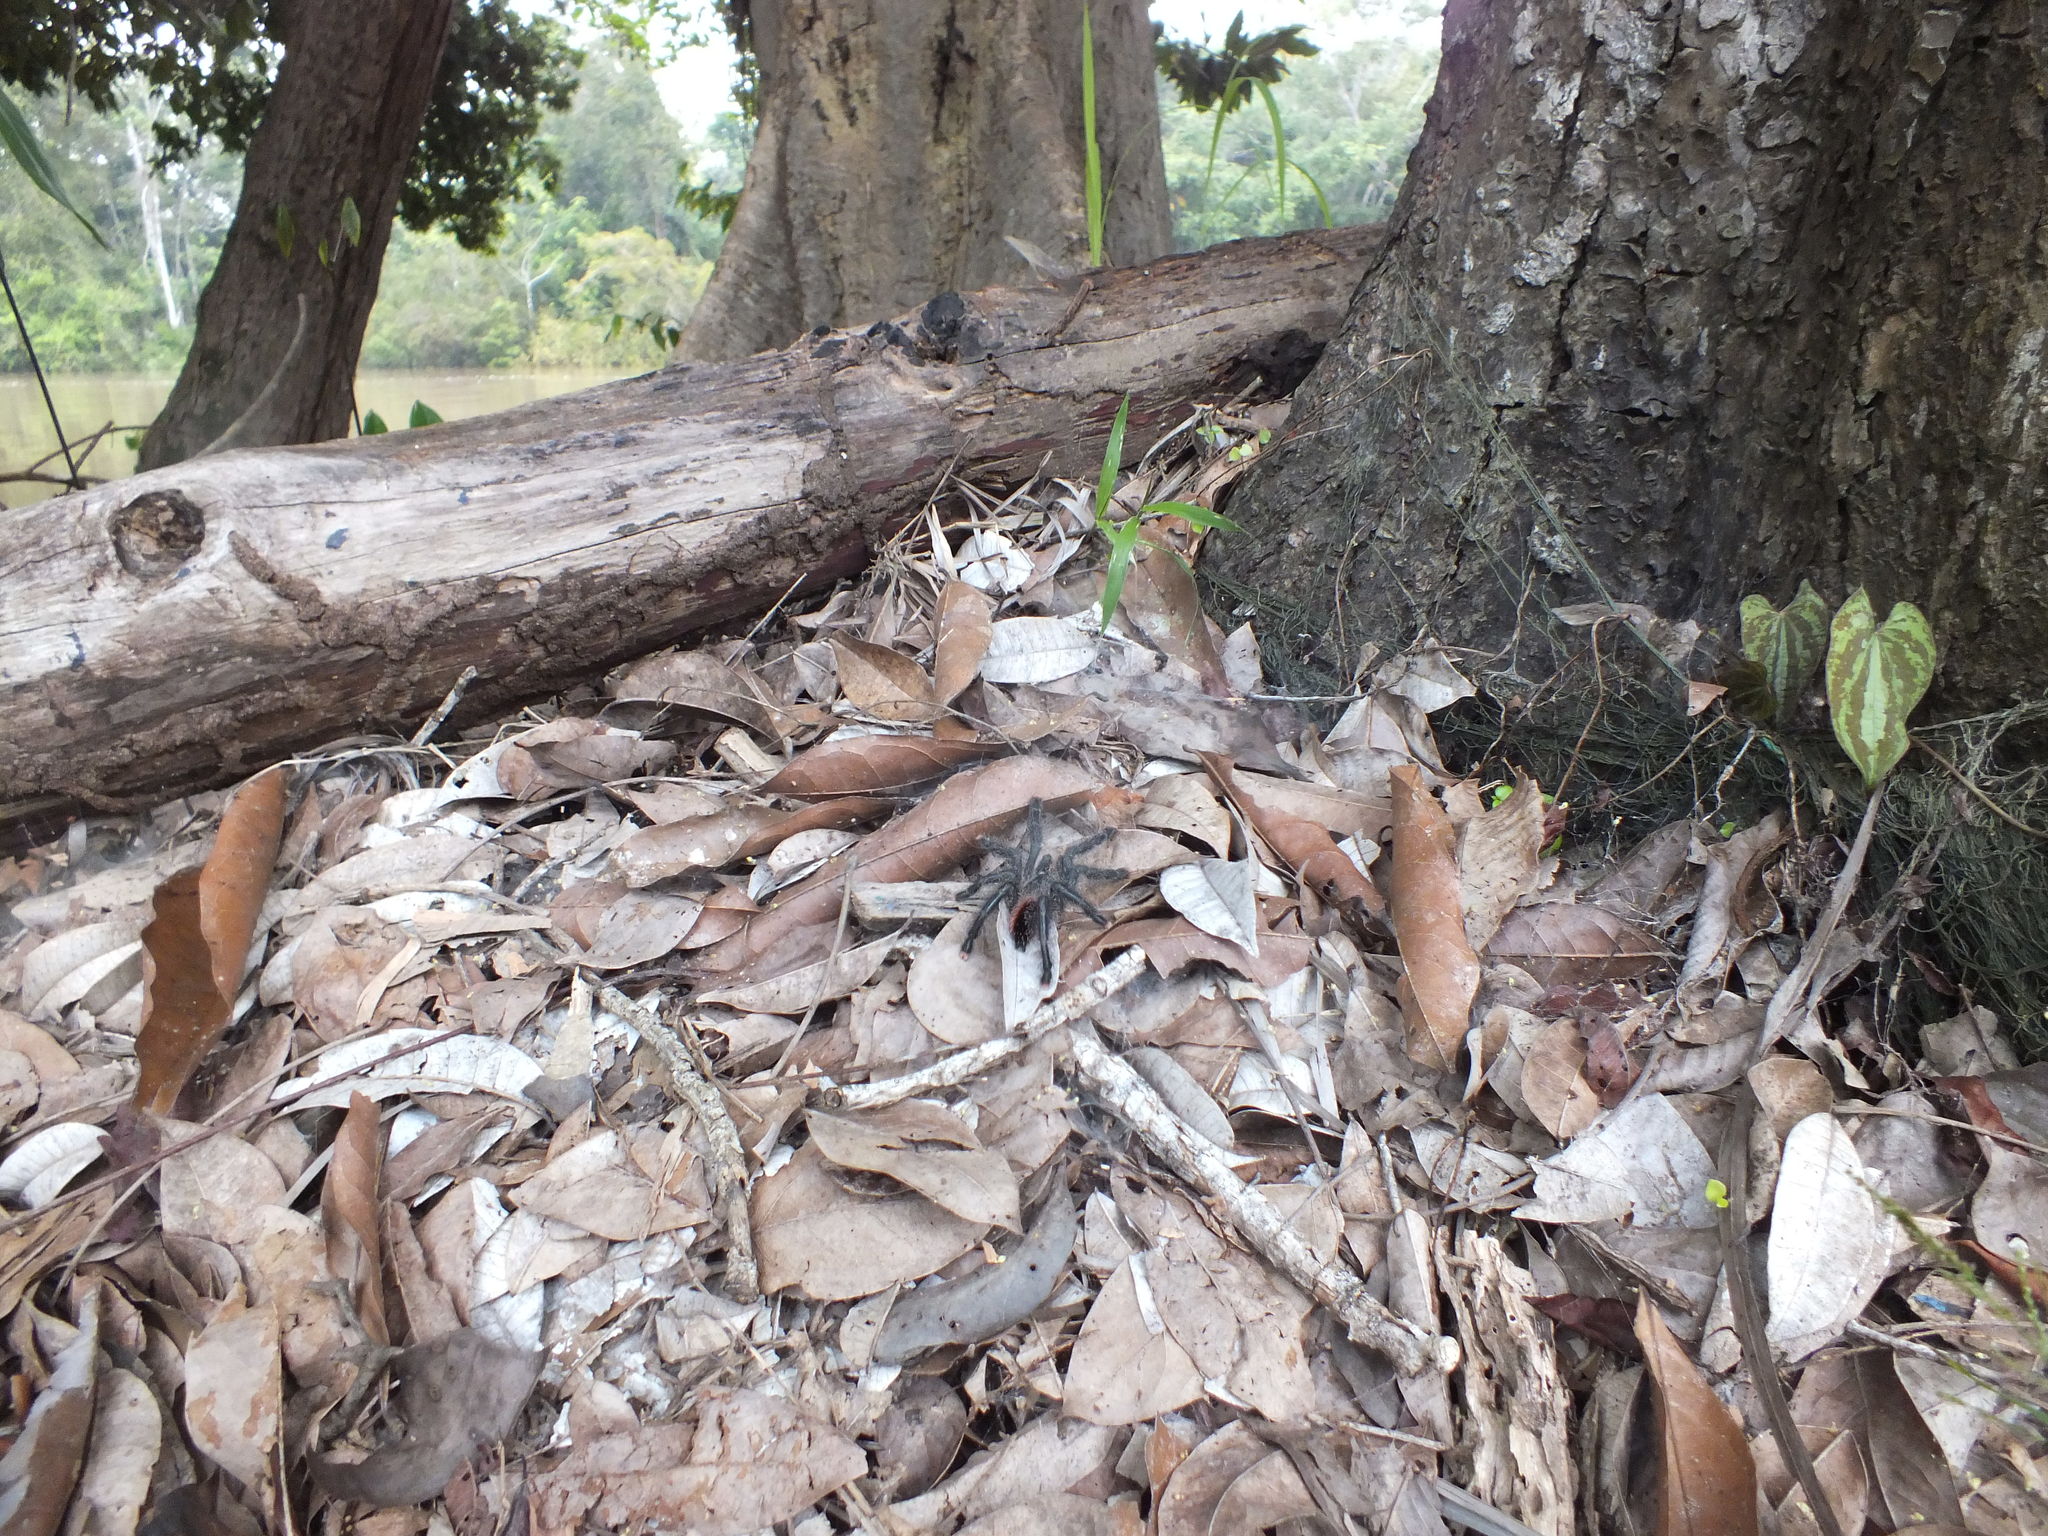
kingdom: Animalia
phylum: Arthropoda
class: Arachnida
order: Araneae
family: Theraphosidae
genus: Avicularia
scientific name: Avicularia juruensis
